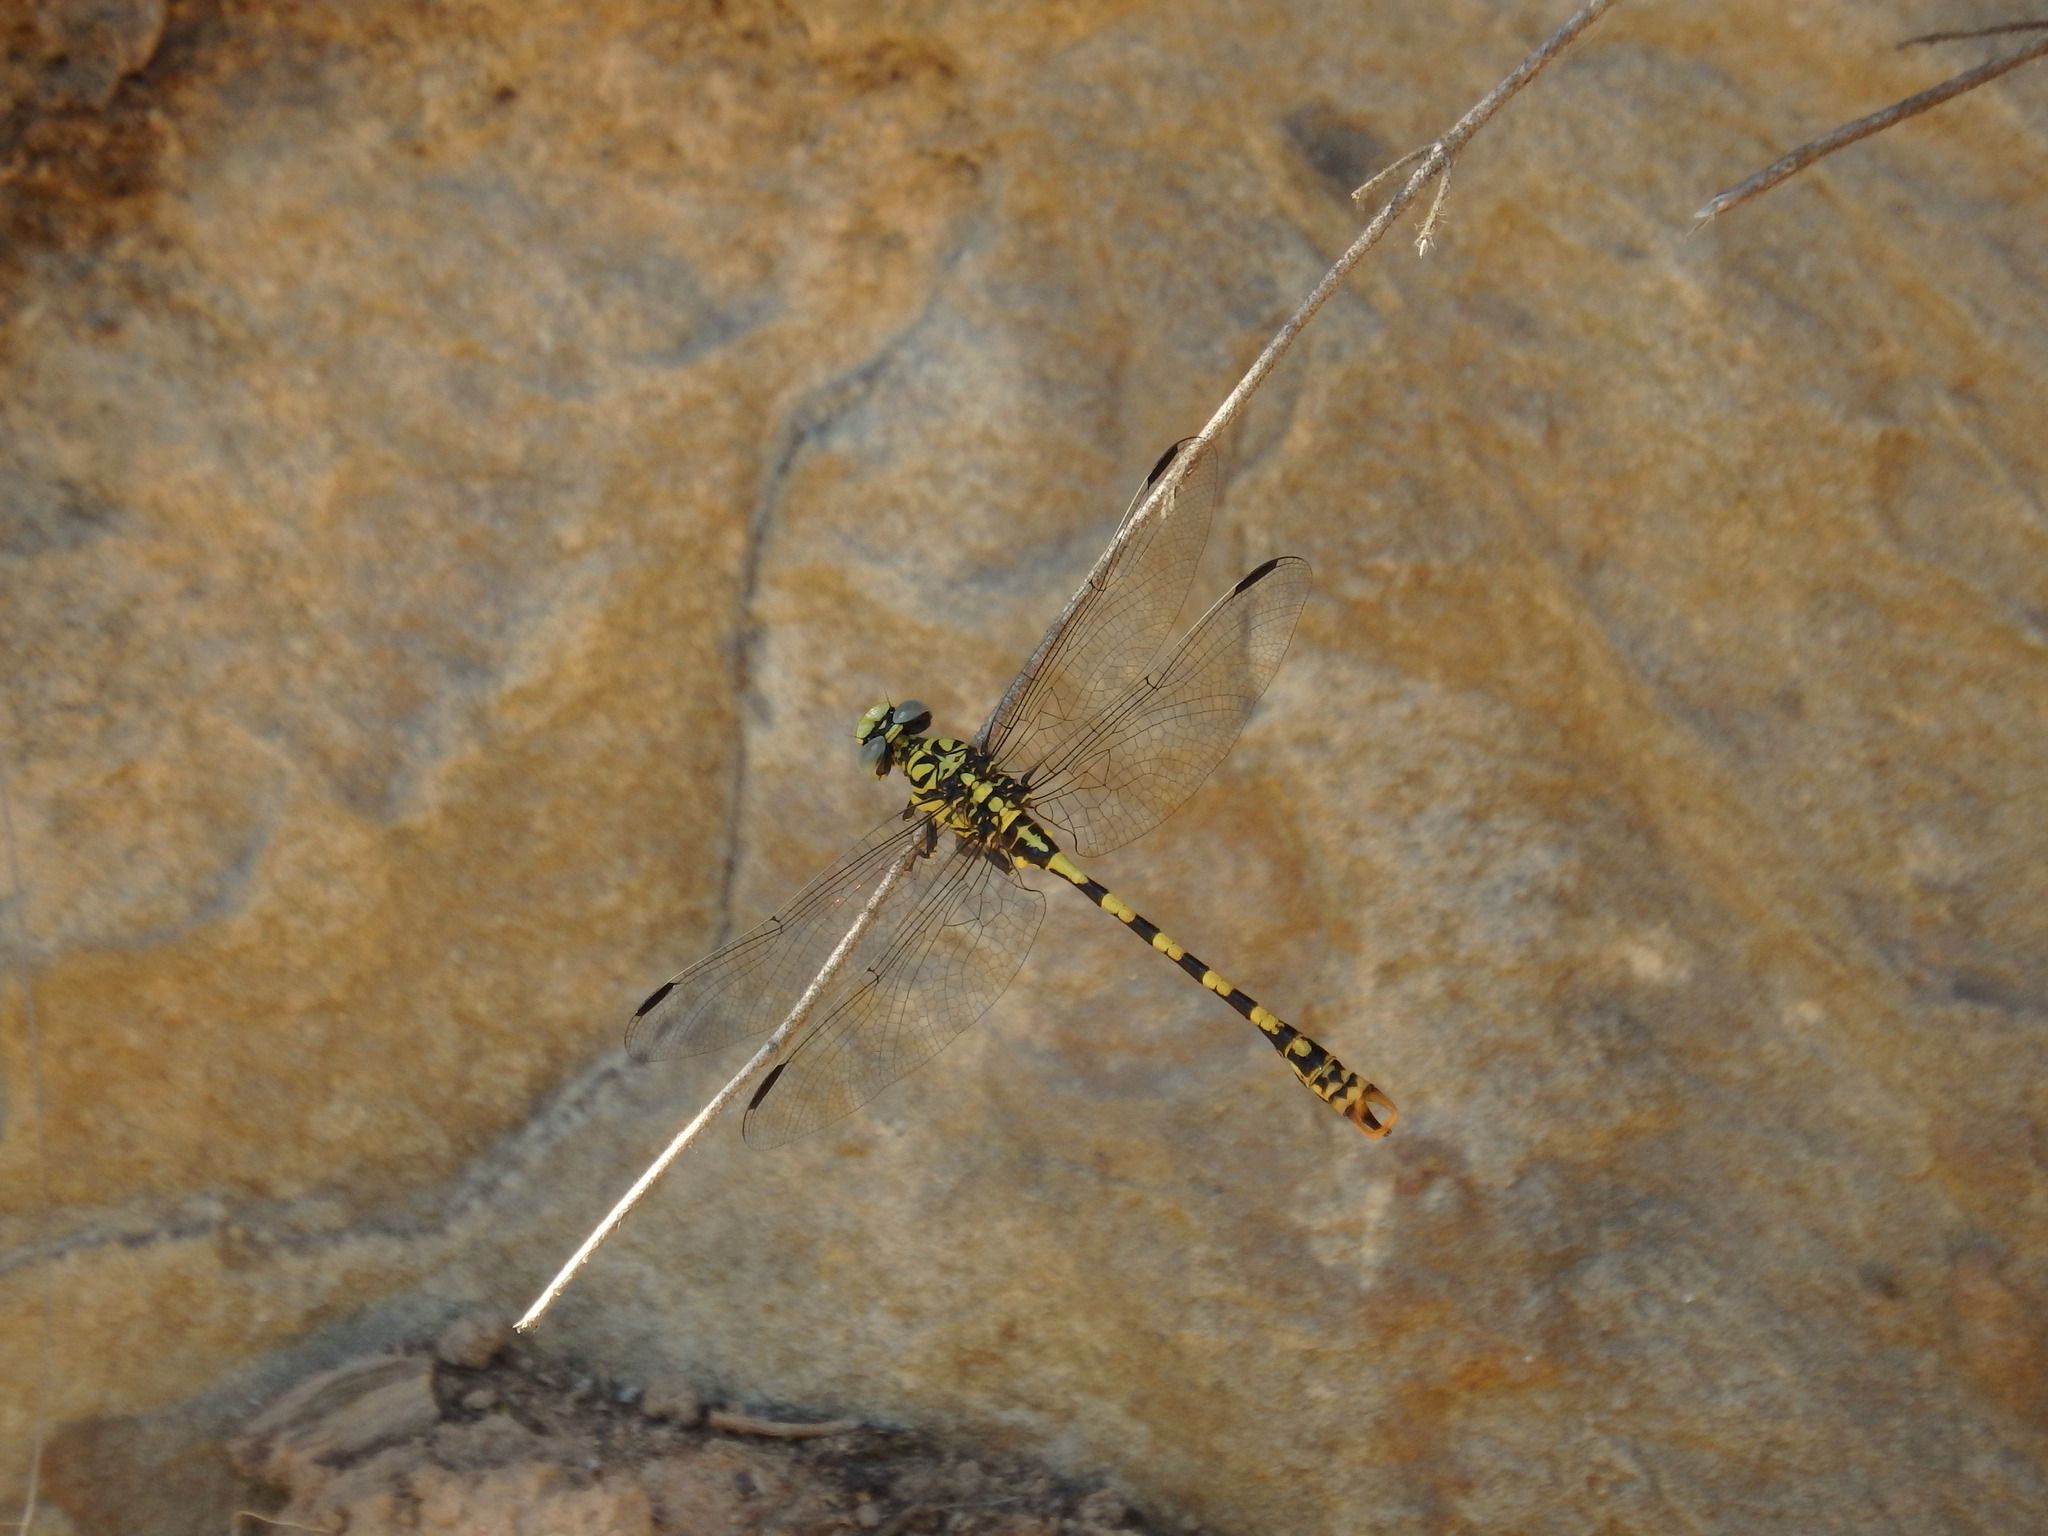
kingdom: Animalia
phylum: Arthropoda
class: Insecta
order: Odonata
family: Gomphidae
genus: Onychogomphus
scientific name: Onychogomphus forcipatus
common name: Small pincertail
